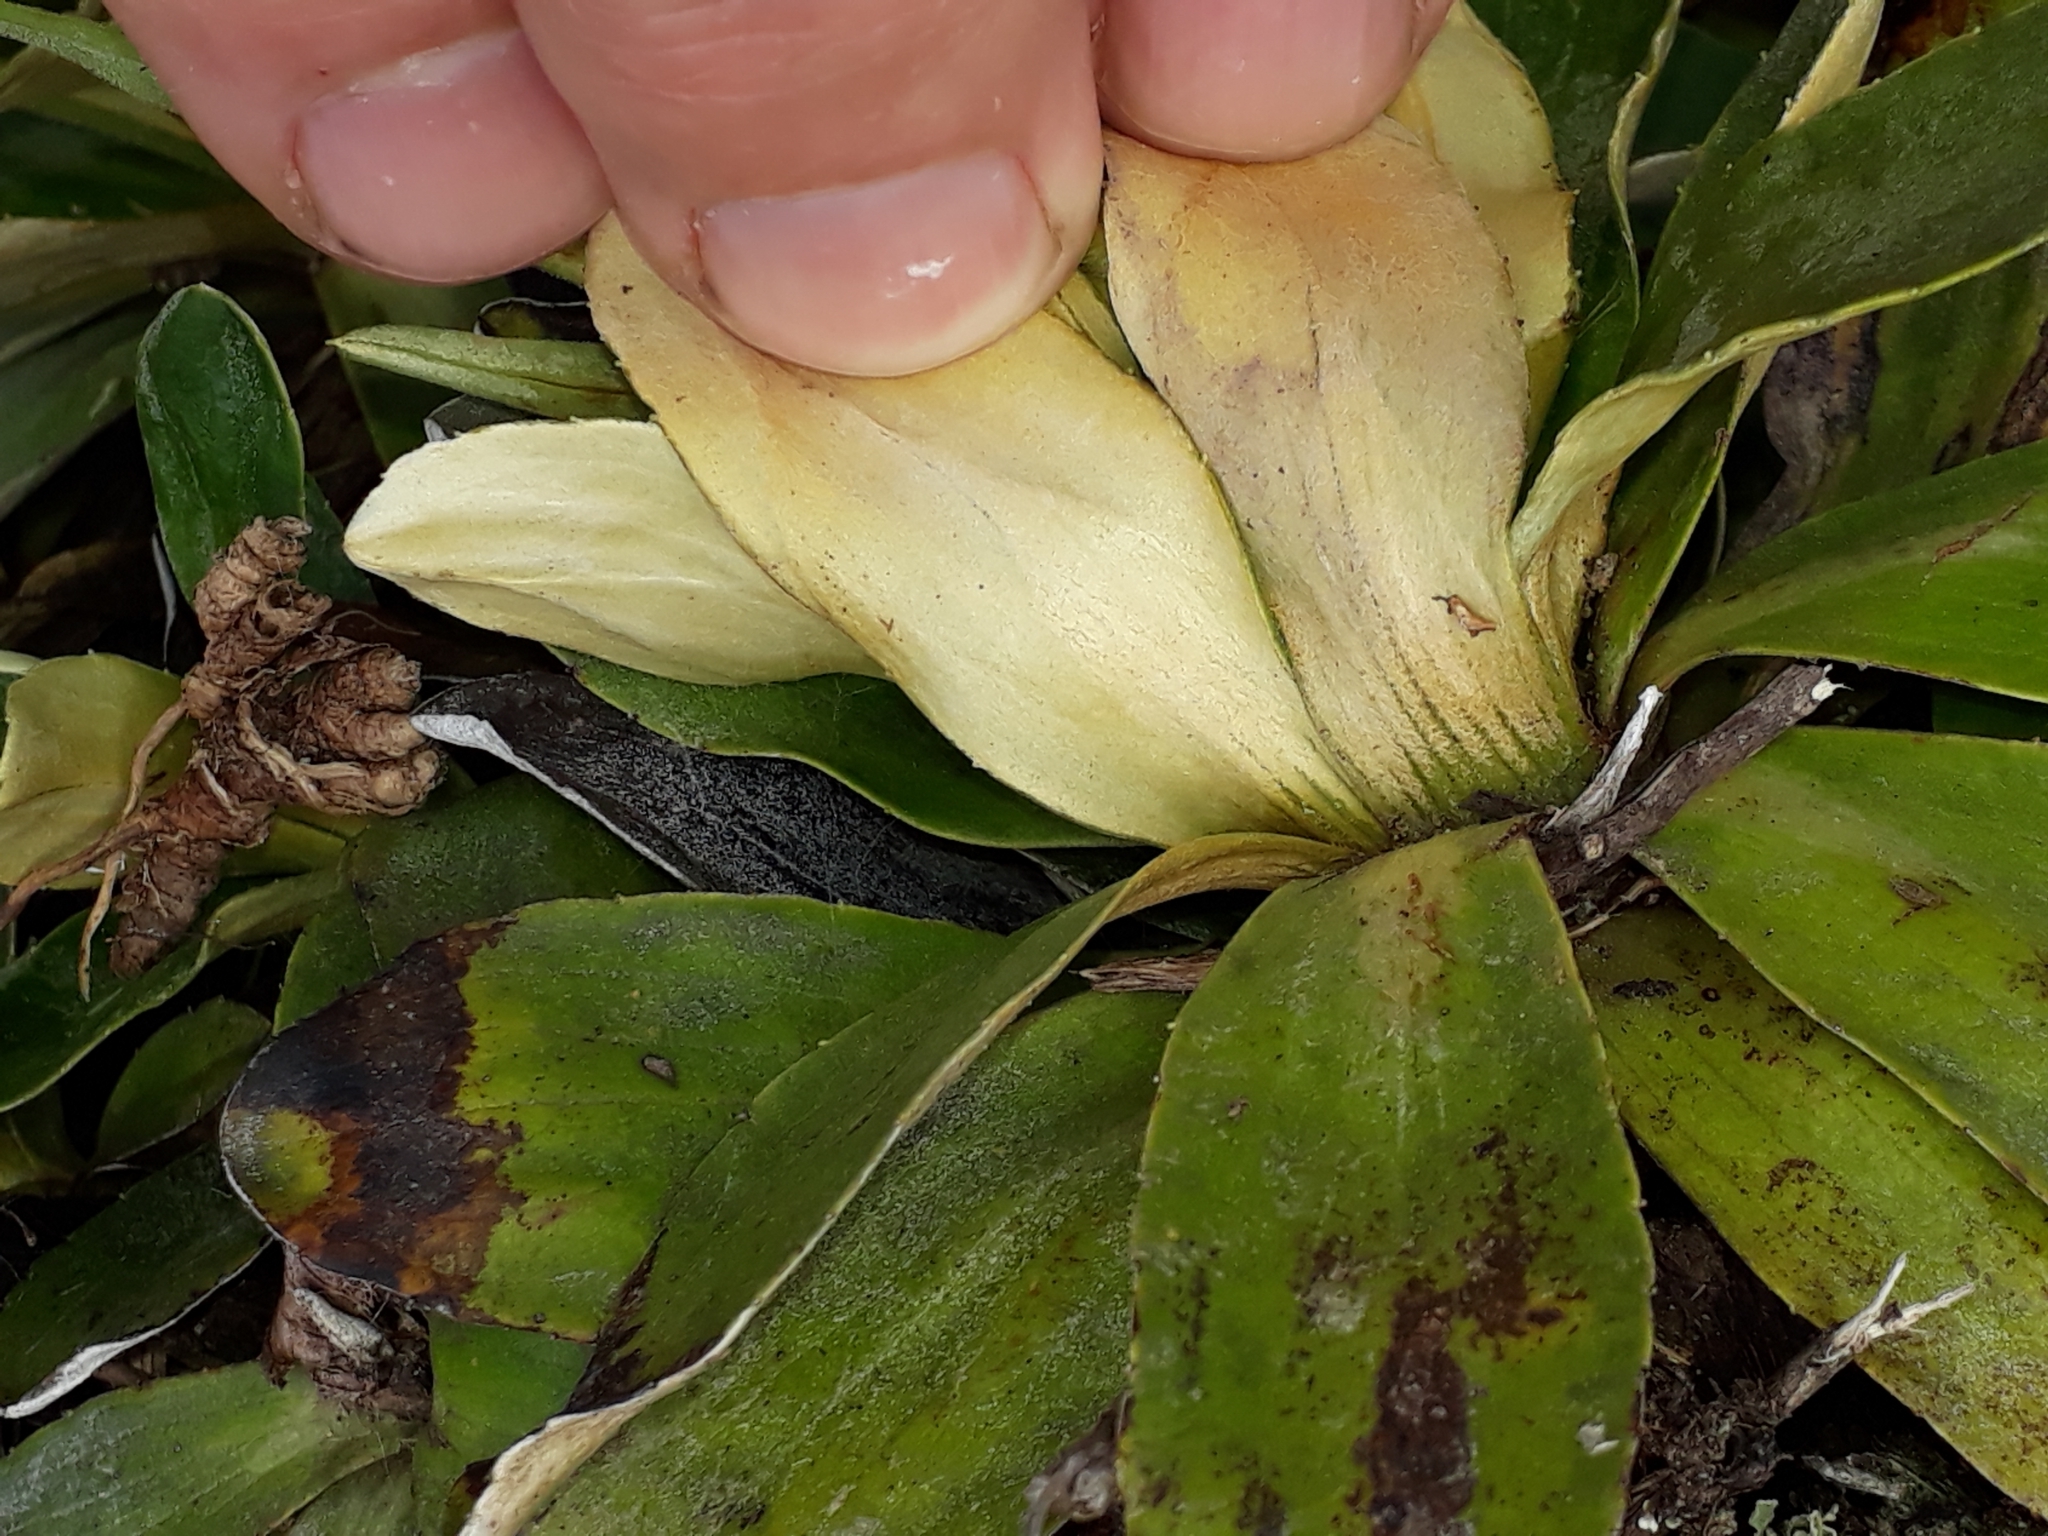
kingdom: Plantae
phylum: Tracheophyta
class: Magnoliopsida
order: Asterales
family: Asteraceae
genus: Celmisia
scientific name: Celmisia hieraciifolia
